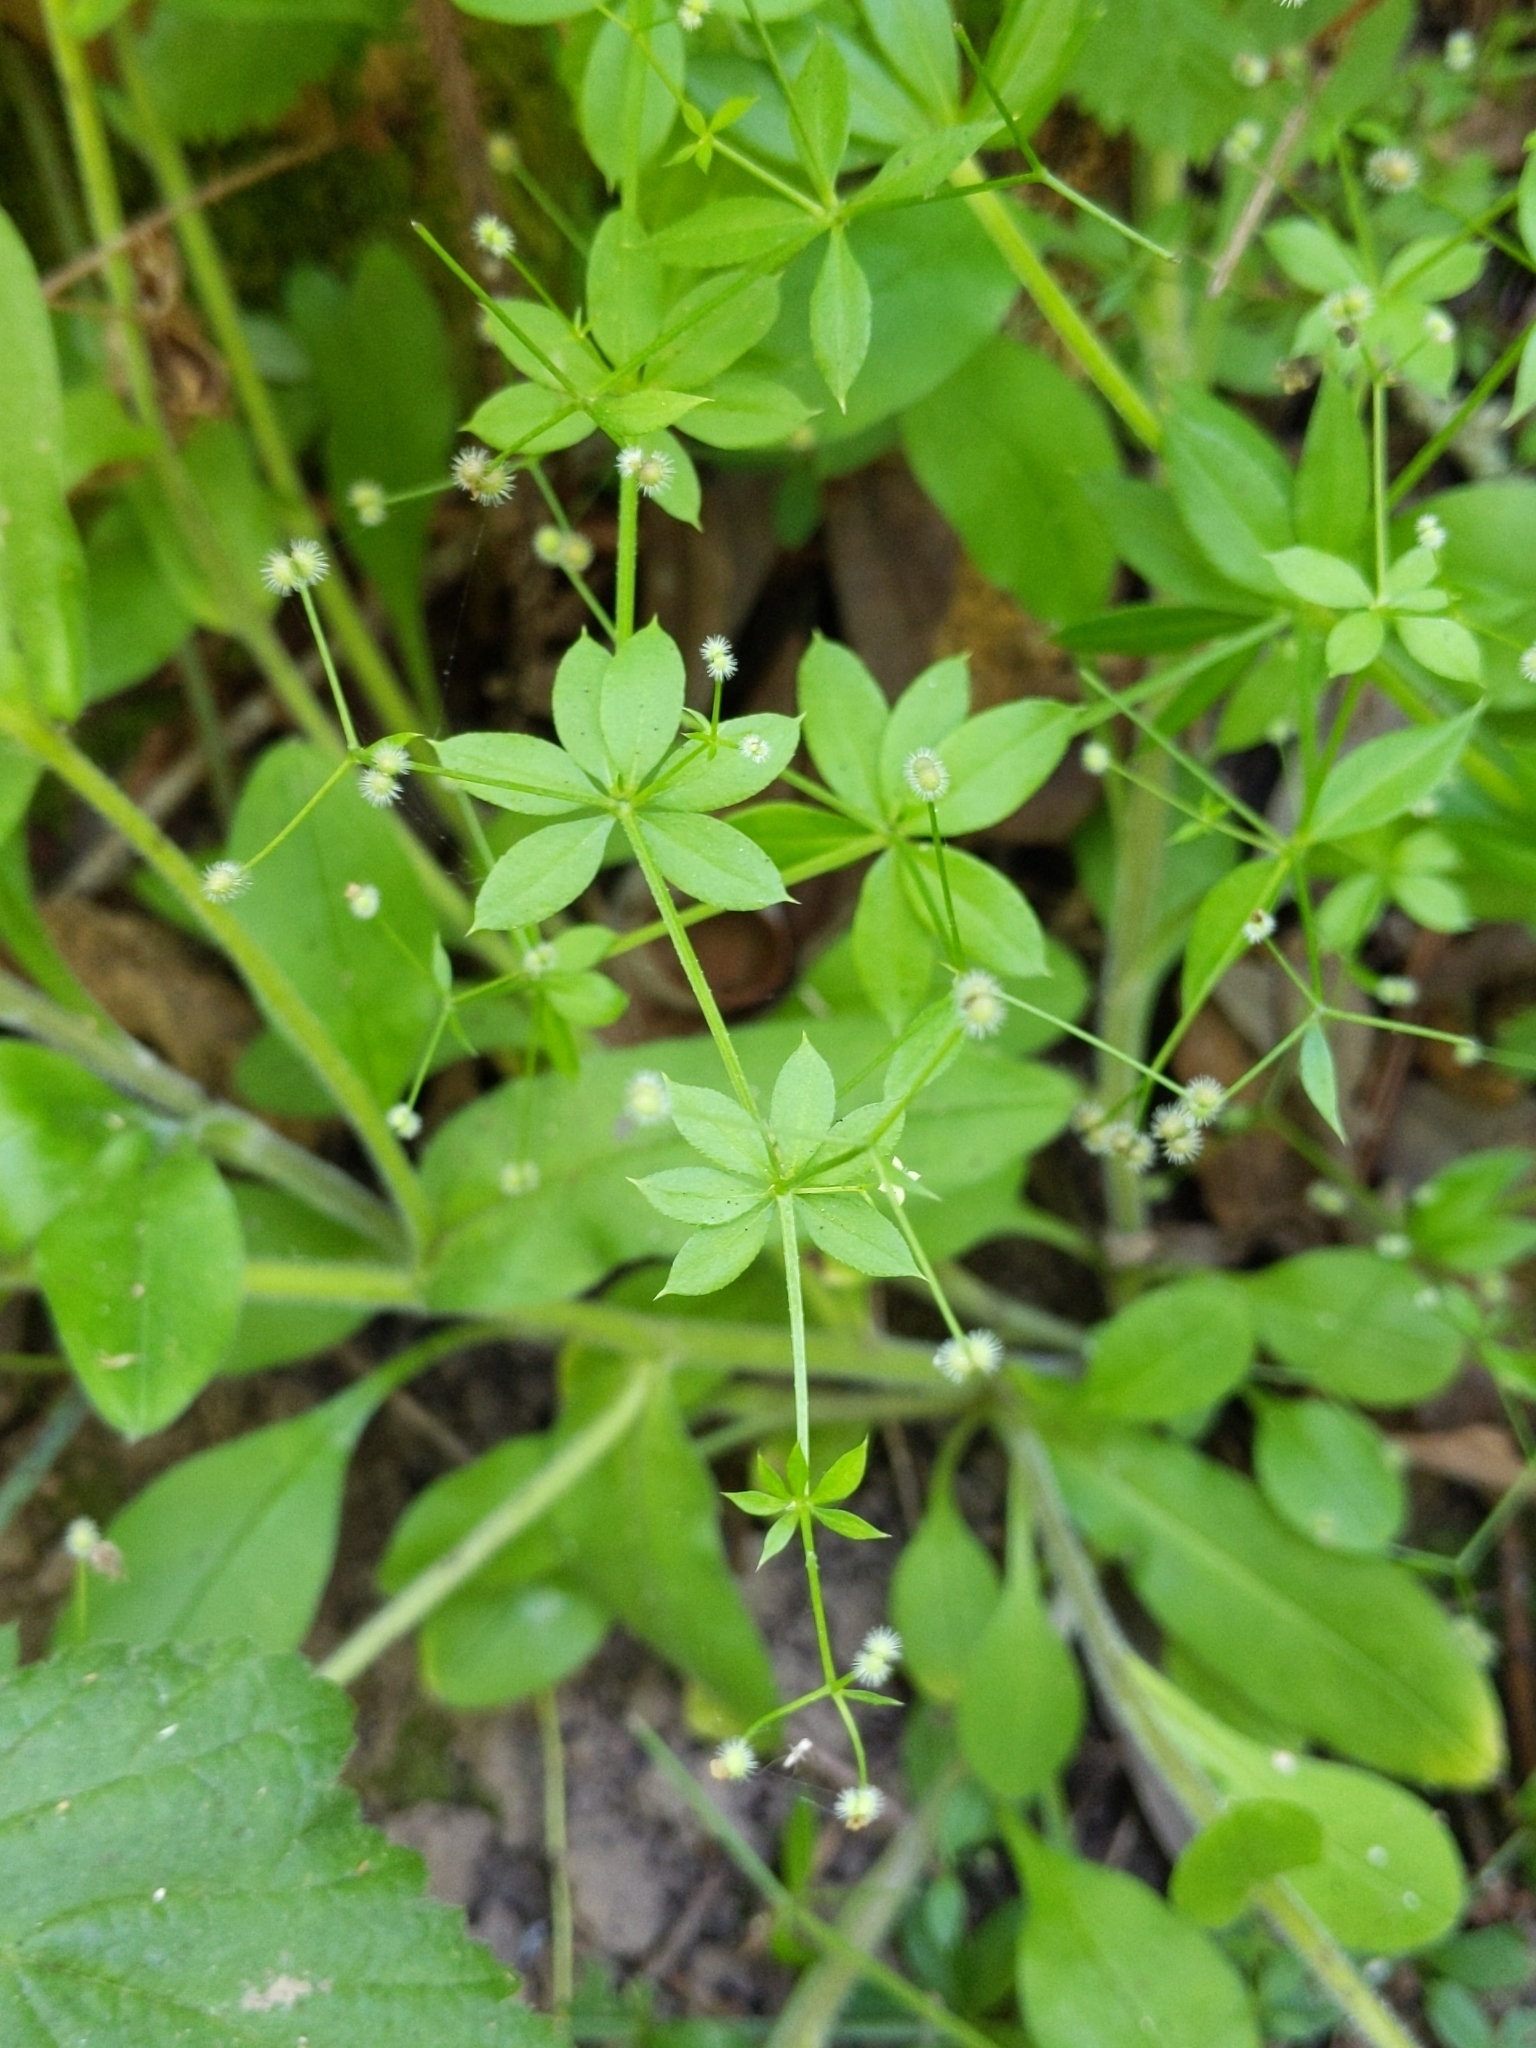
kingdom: Plantae
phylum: Tracheophyta
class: Magnoliopsida
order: Gentianales
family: Rubiaceae
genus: Galium
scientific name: Galium triflorum
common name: Fragrant bedstraw
